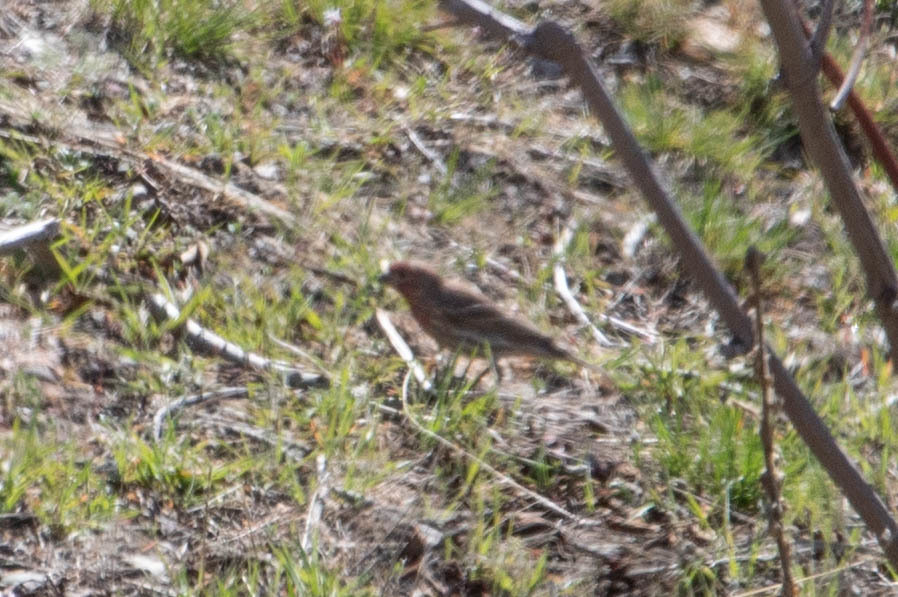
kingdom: Animalia
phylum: Chordata
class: Aves
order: Passeriformes
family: Fringillidae
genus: Haemorhous
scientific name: Haemorhous mexicanus
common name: House finch
